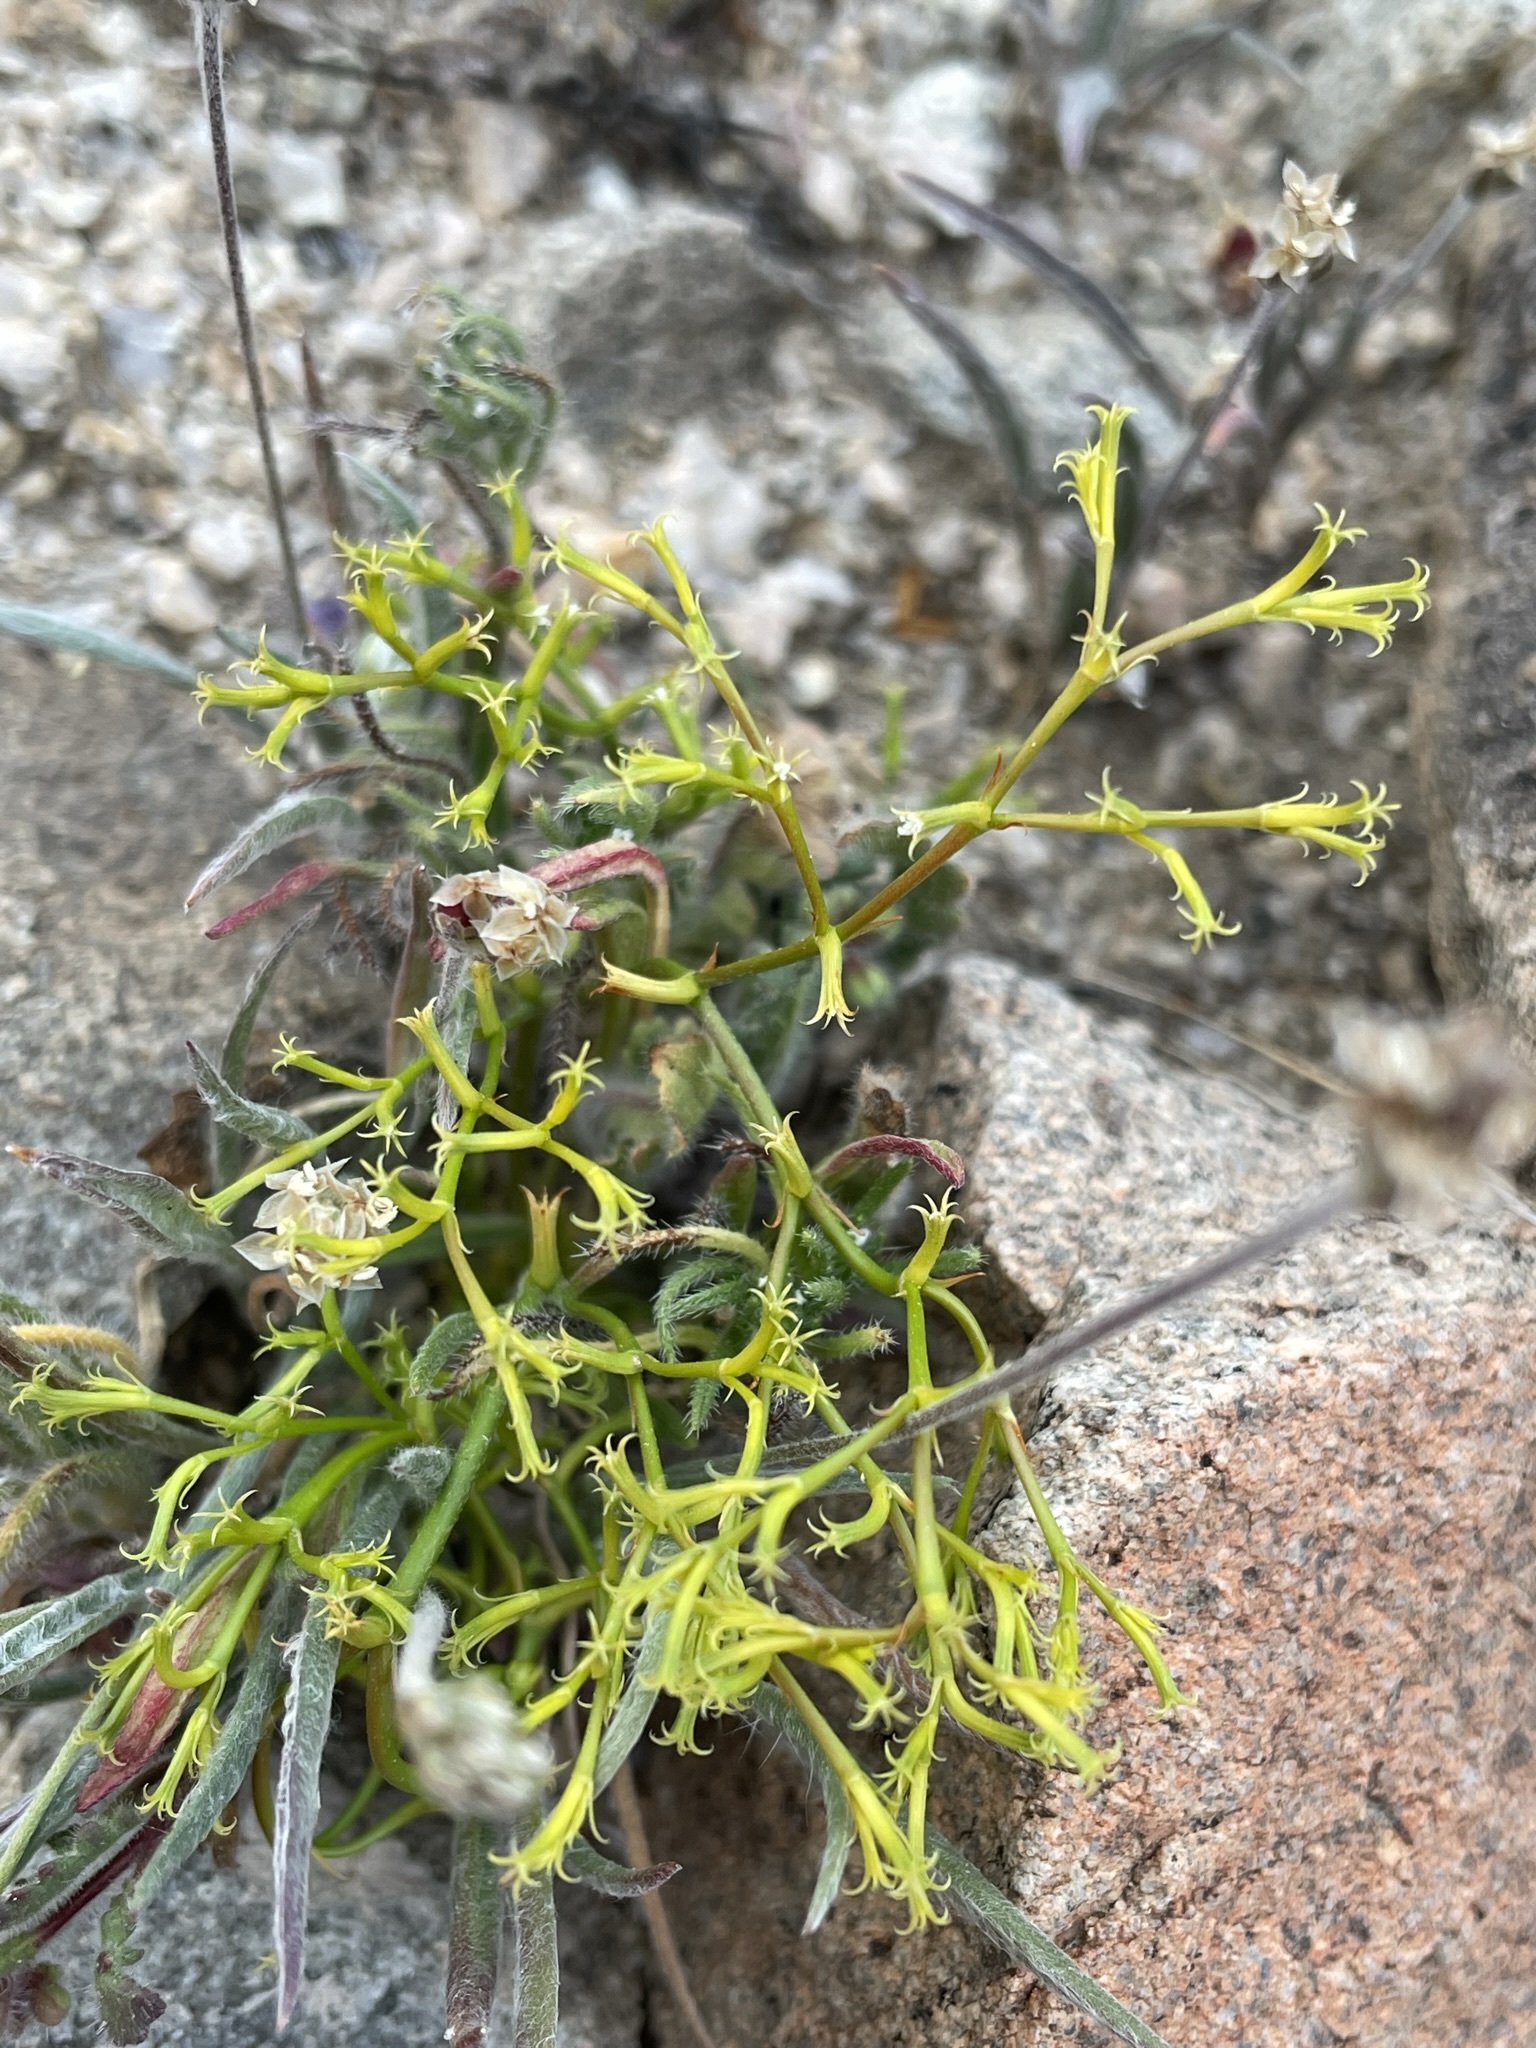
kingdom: Plantae
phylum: Tracheophyta
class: Magnoliopsida
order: Caryophyllales
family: Polygonaceae
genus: Chorizanthe
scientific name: Chorizanthe brevicornu
